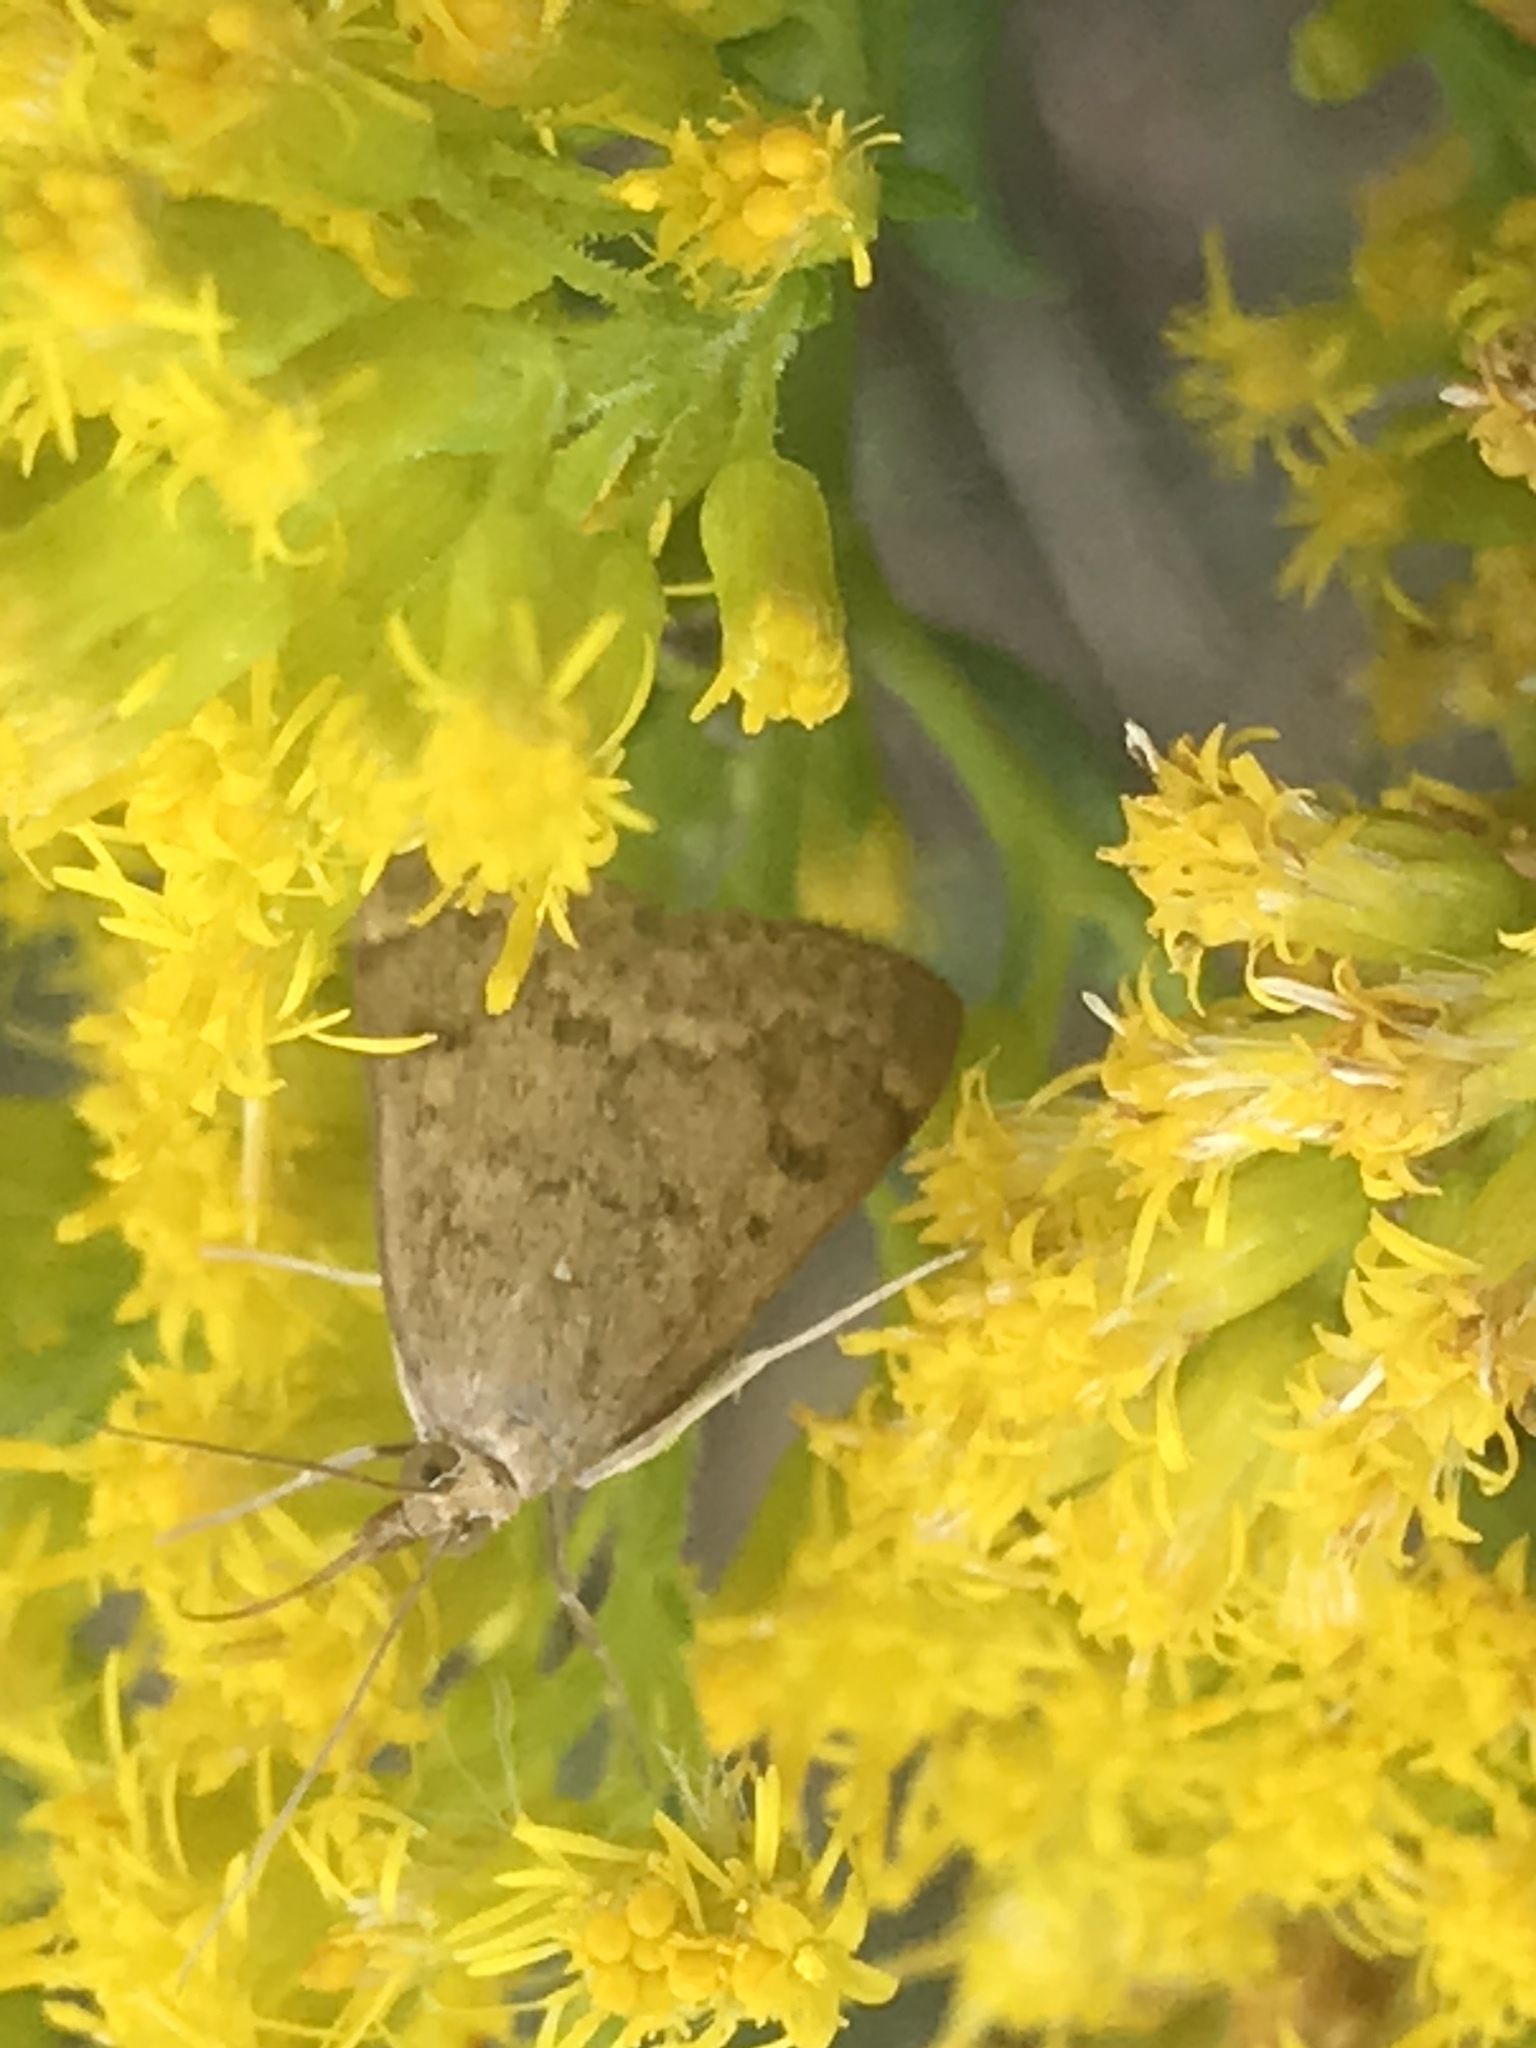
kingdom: Animalia
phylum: Arthropoda
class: Insecta
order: Lepidoptera
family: Crambidae
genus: Achyra
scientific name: Achyra rantalis
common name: Garden webworm
